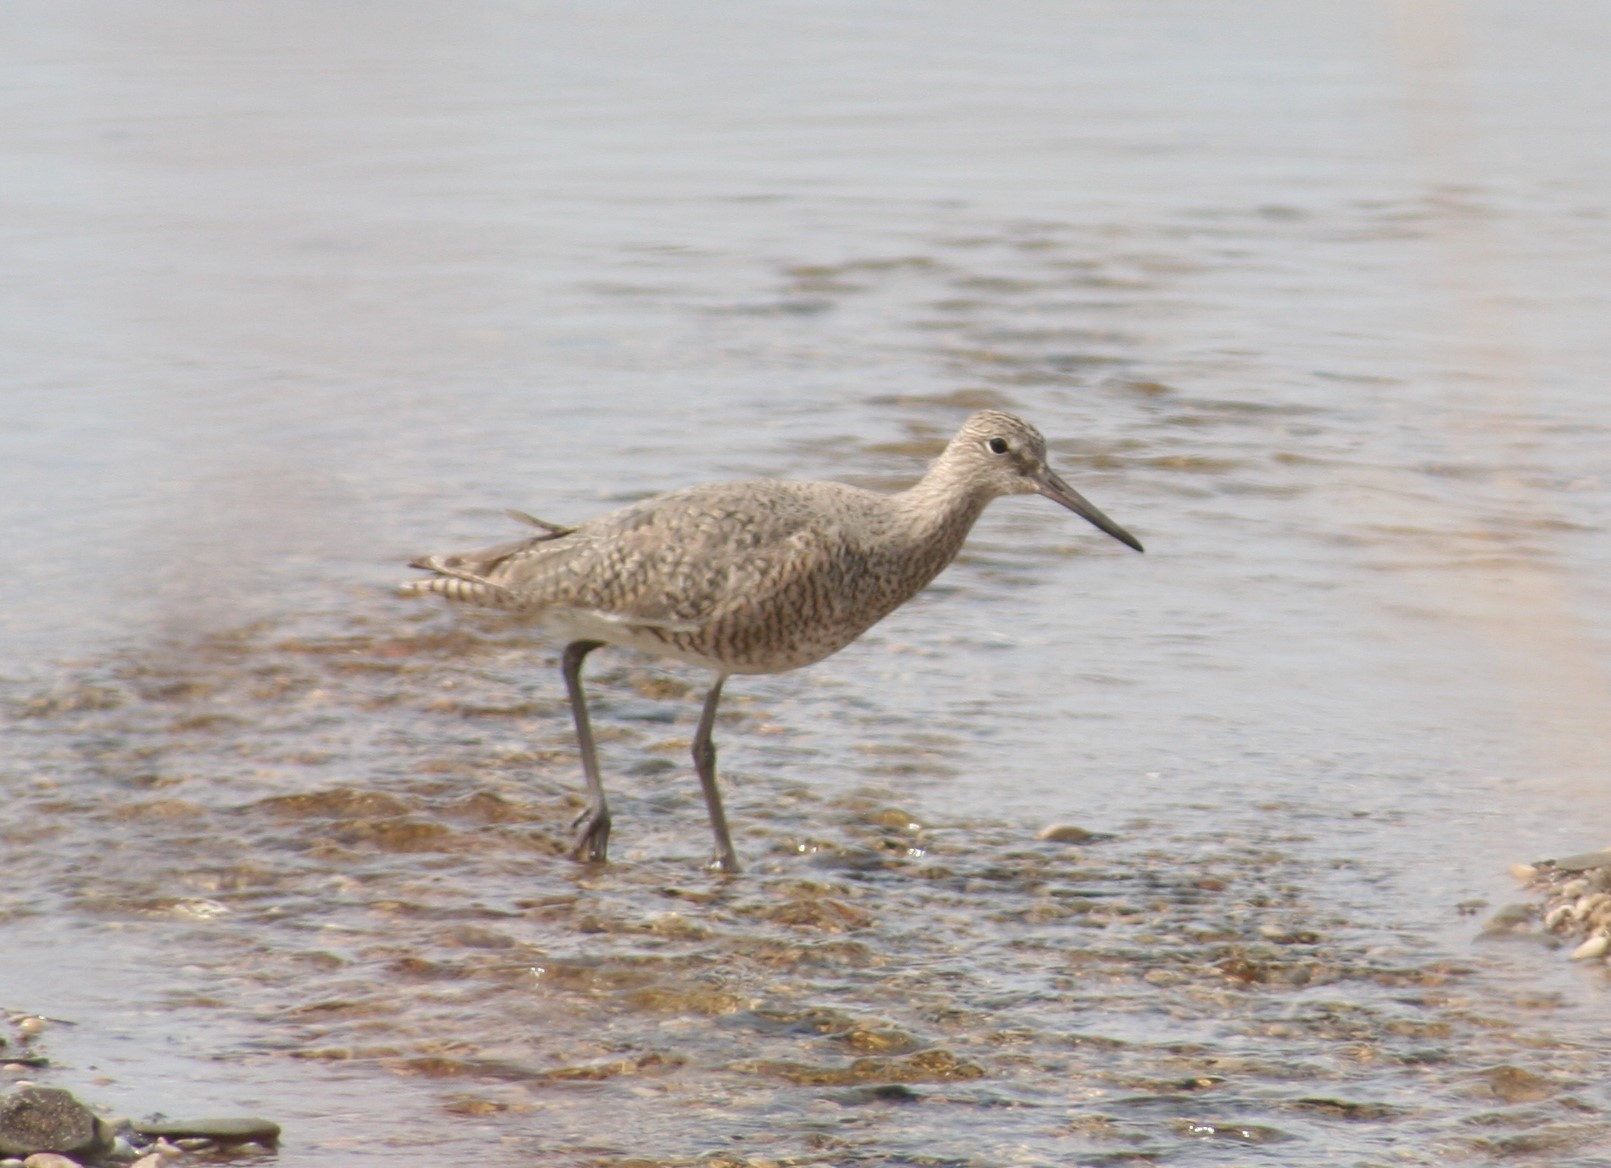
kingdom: Animalia
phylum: Chordata
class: Aves
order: Charadriiformes
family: Scolopacidae
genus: Tringa
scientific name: Tringa semipalmata
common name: Willet
